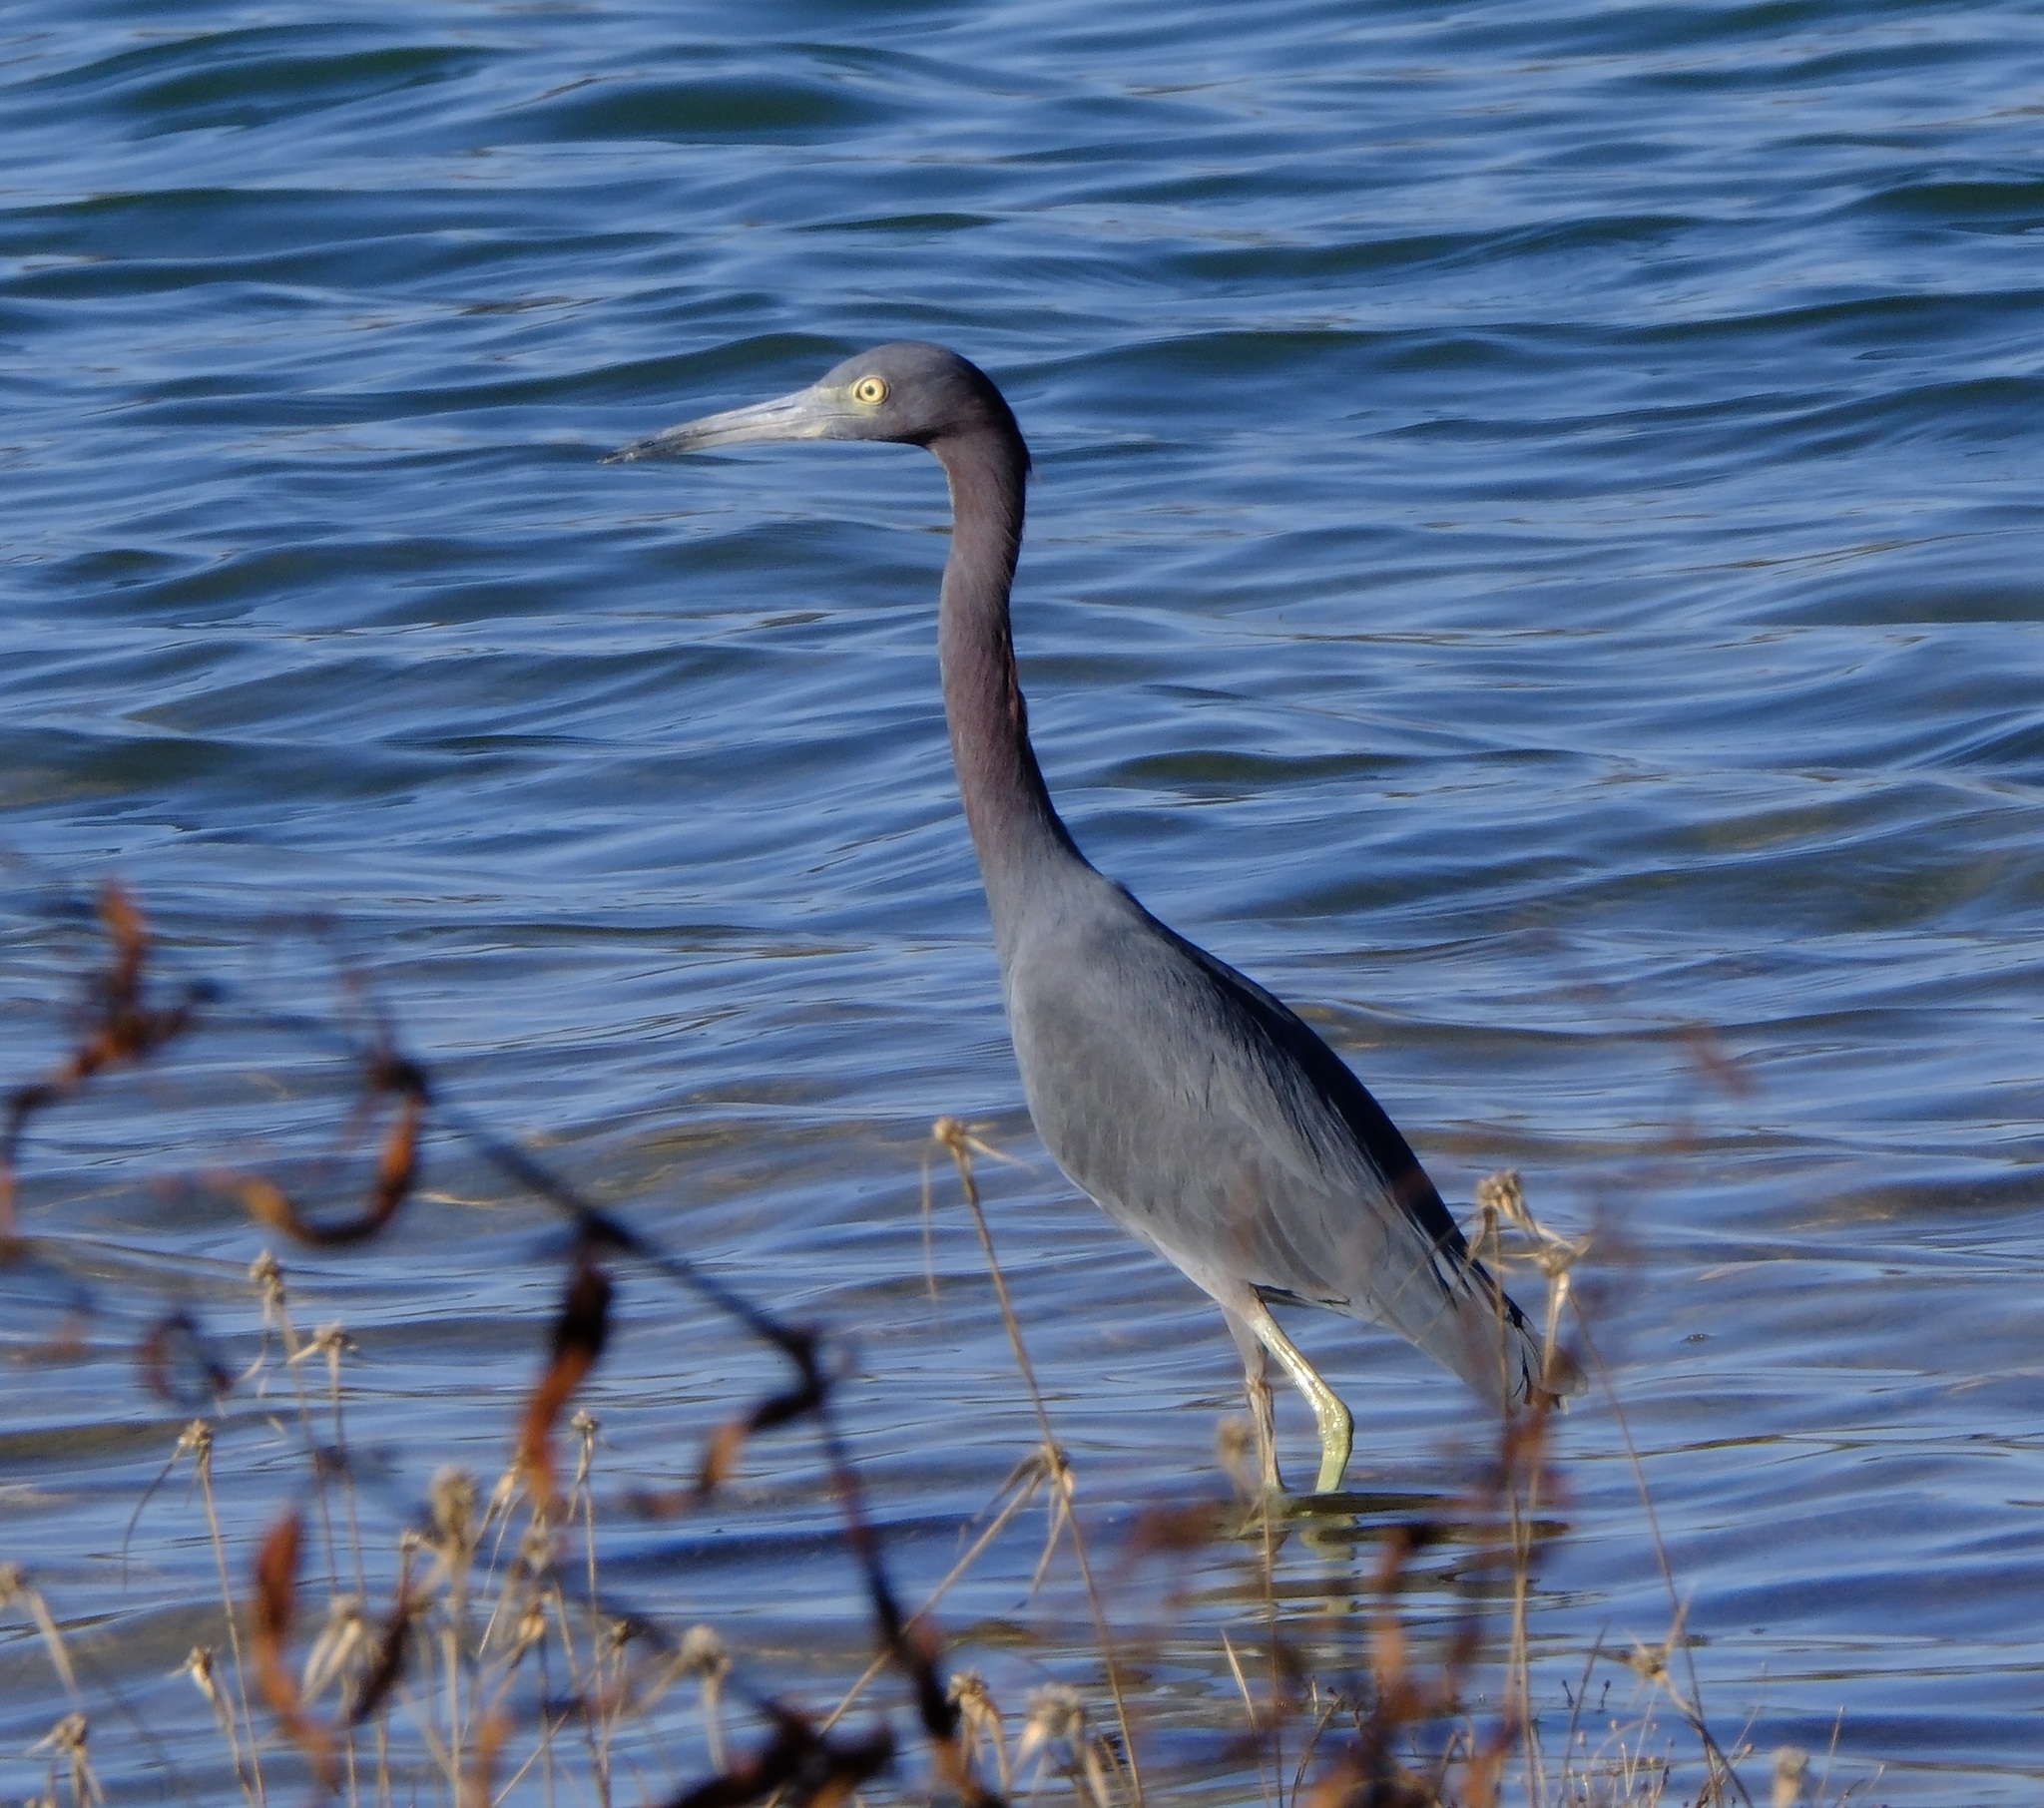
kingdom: Animalia
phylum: Chordata
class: Aves
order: Pelecaniformes
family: Ardeidae
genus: Egretta
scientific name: Egretta caerulea
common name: Little blue heron
